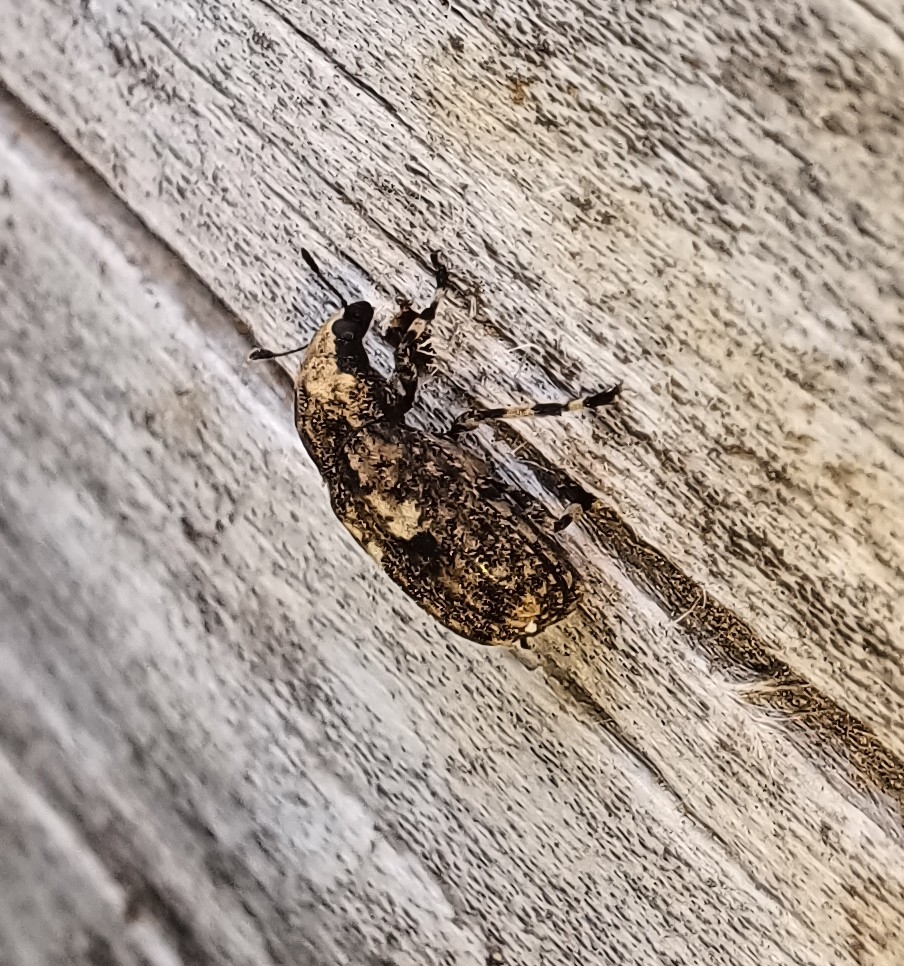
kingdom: Animalia
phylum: Arthropoda
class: Insecta
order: Coleoptera
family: Anthribidae
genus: Euparius
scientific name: Euparius marmoreus
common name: Marbled fungus weevil
